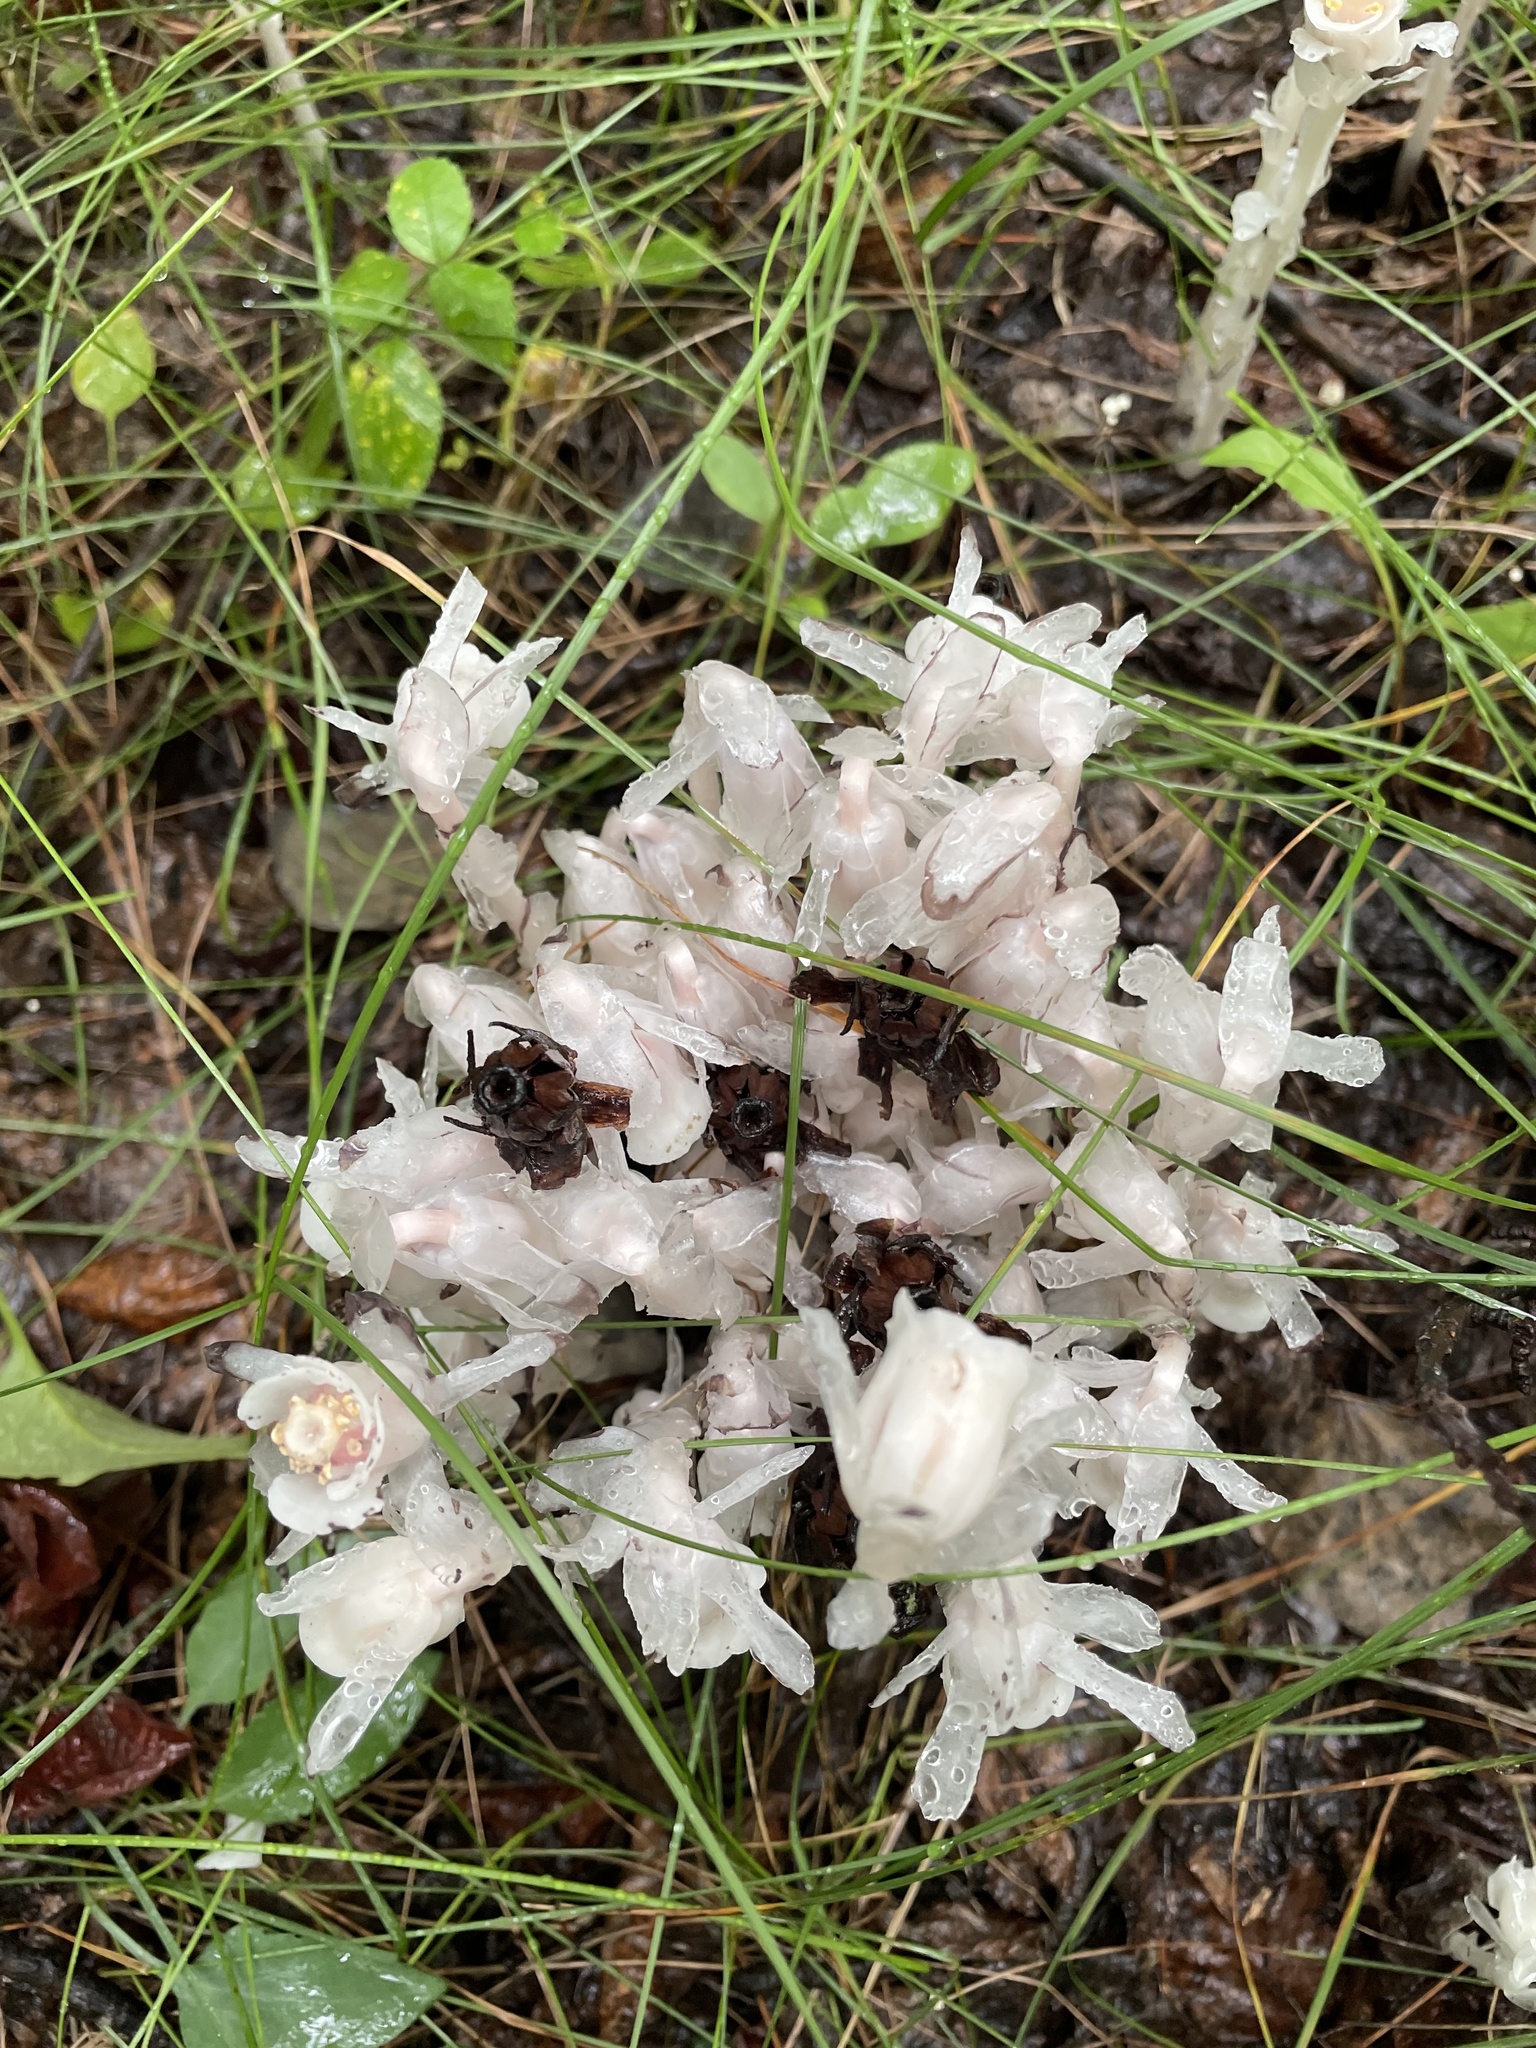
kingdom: Plantae
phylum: Tracheophyta
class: Magnoliopsida
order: Ericales
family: Ericaceae
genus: Monotropa
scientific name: Monotropa uniflora
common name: Convulsion root
